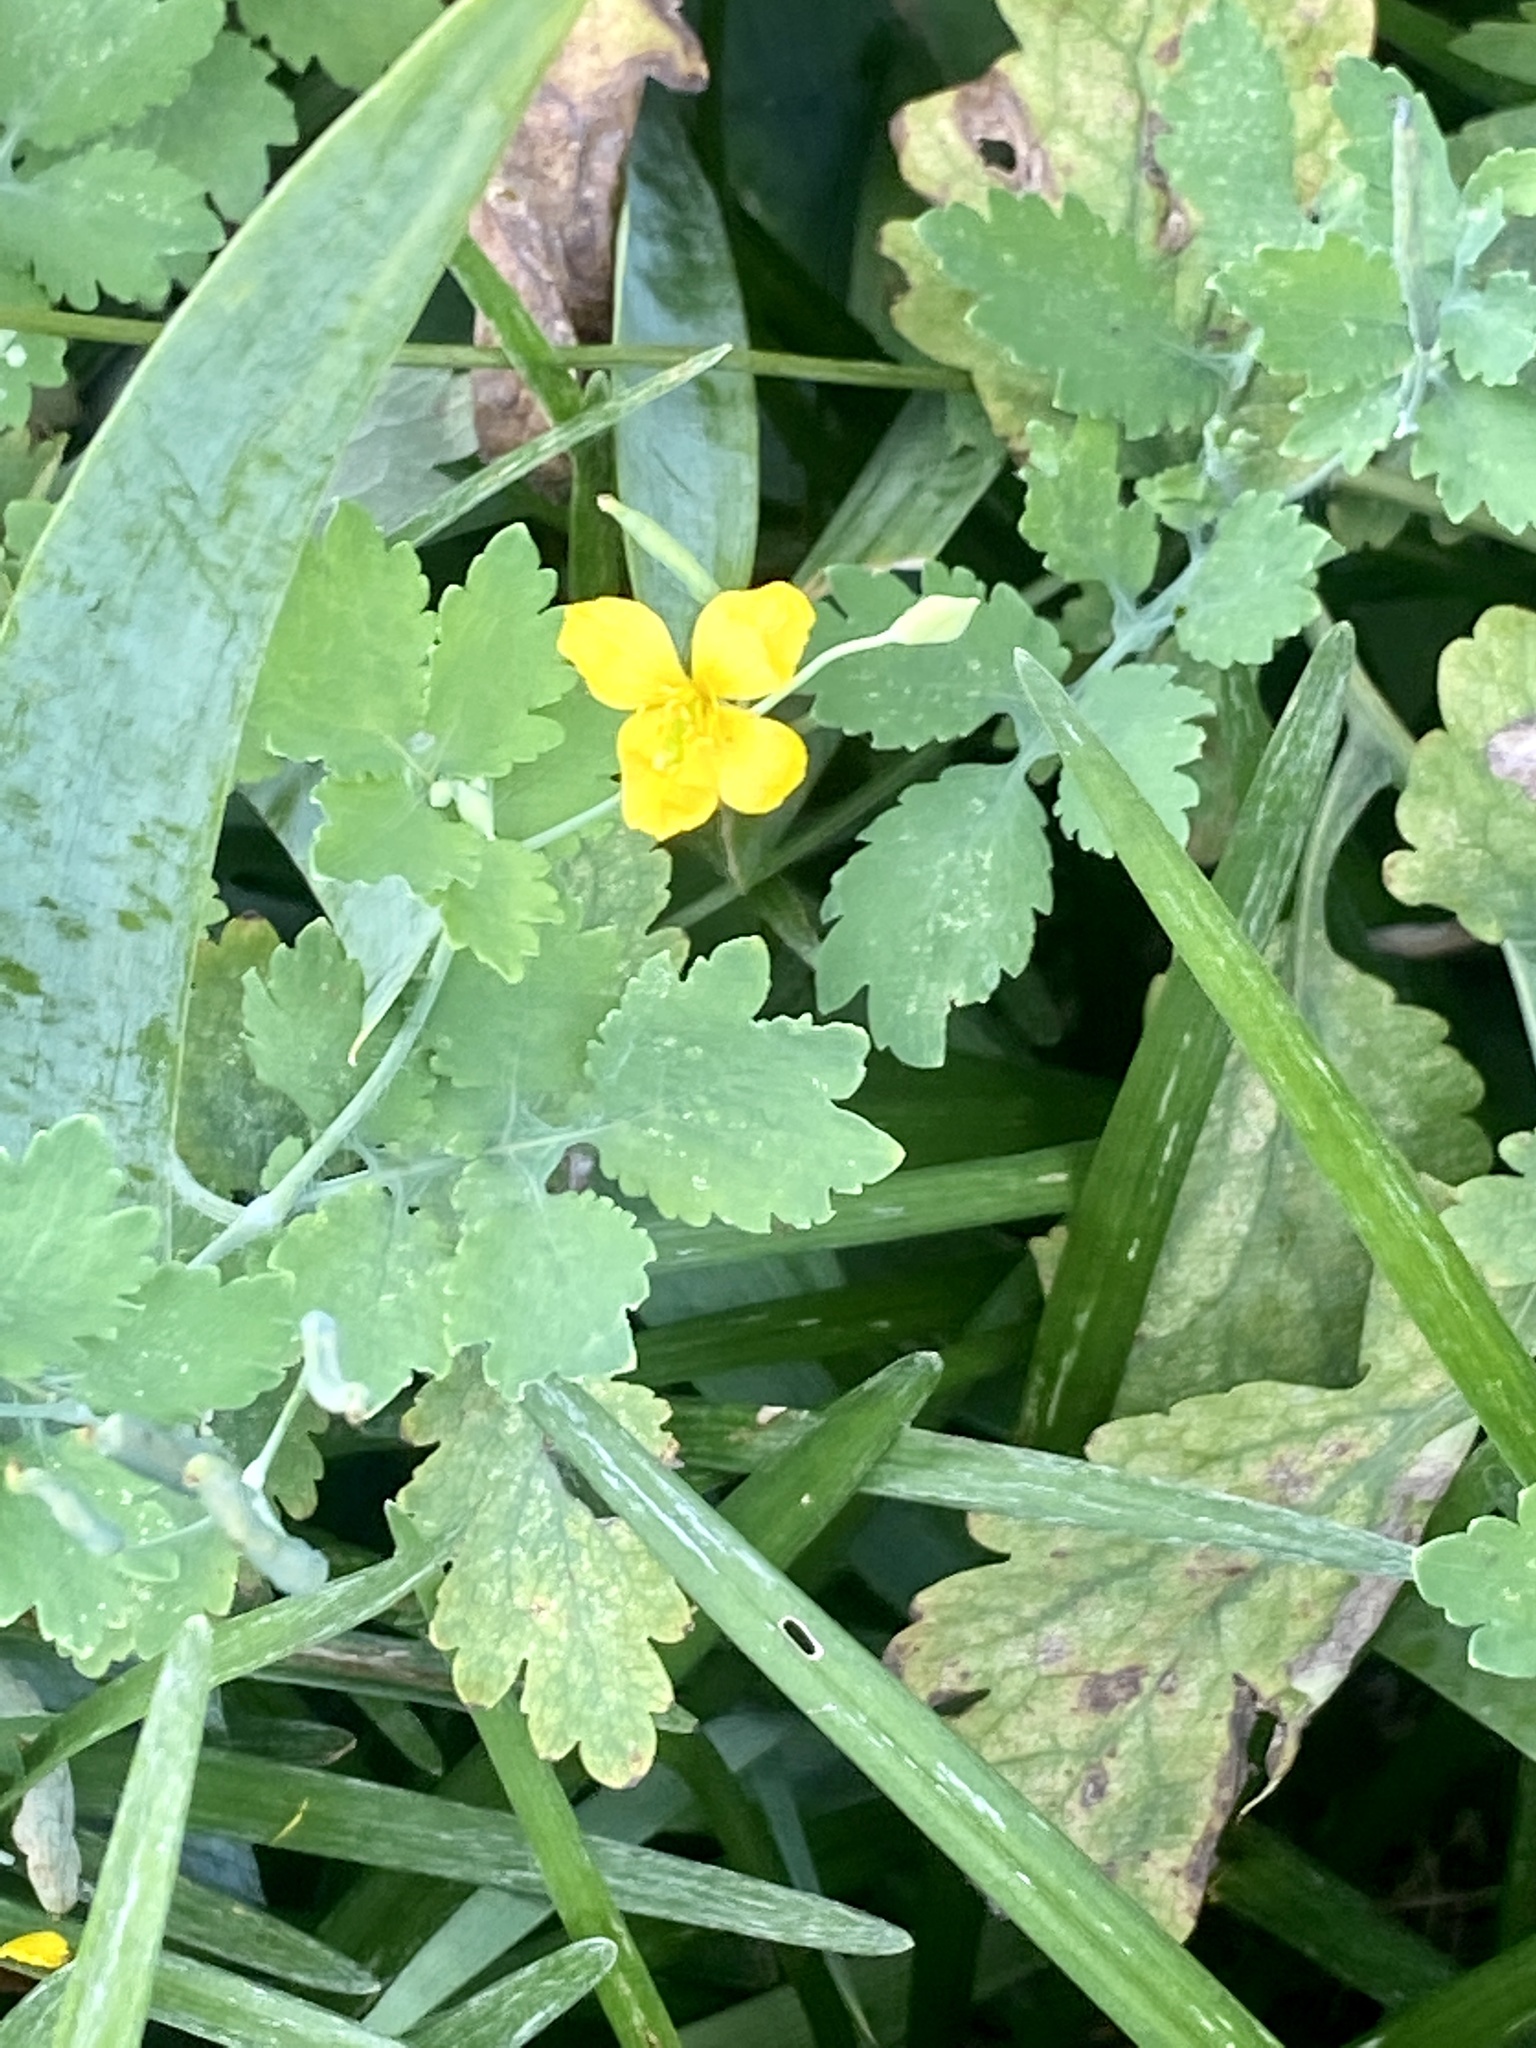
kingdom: Plantae
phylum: Tracheophyta
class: Magnoliopsida
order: Ranunculales
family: Papaveraceae
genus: Chelidonium
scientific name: Chelidonium majus
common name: Greater celandine
